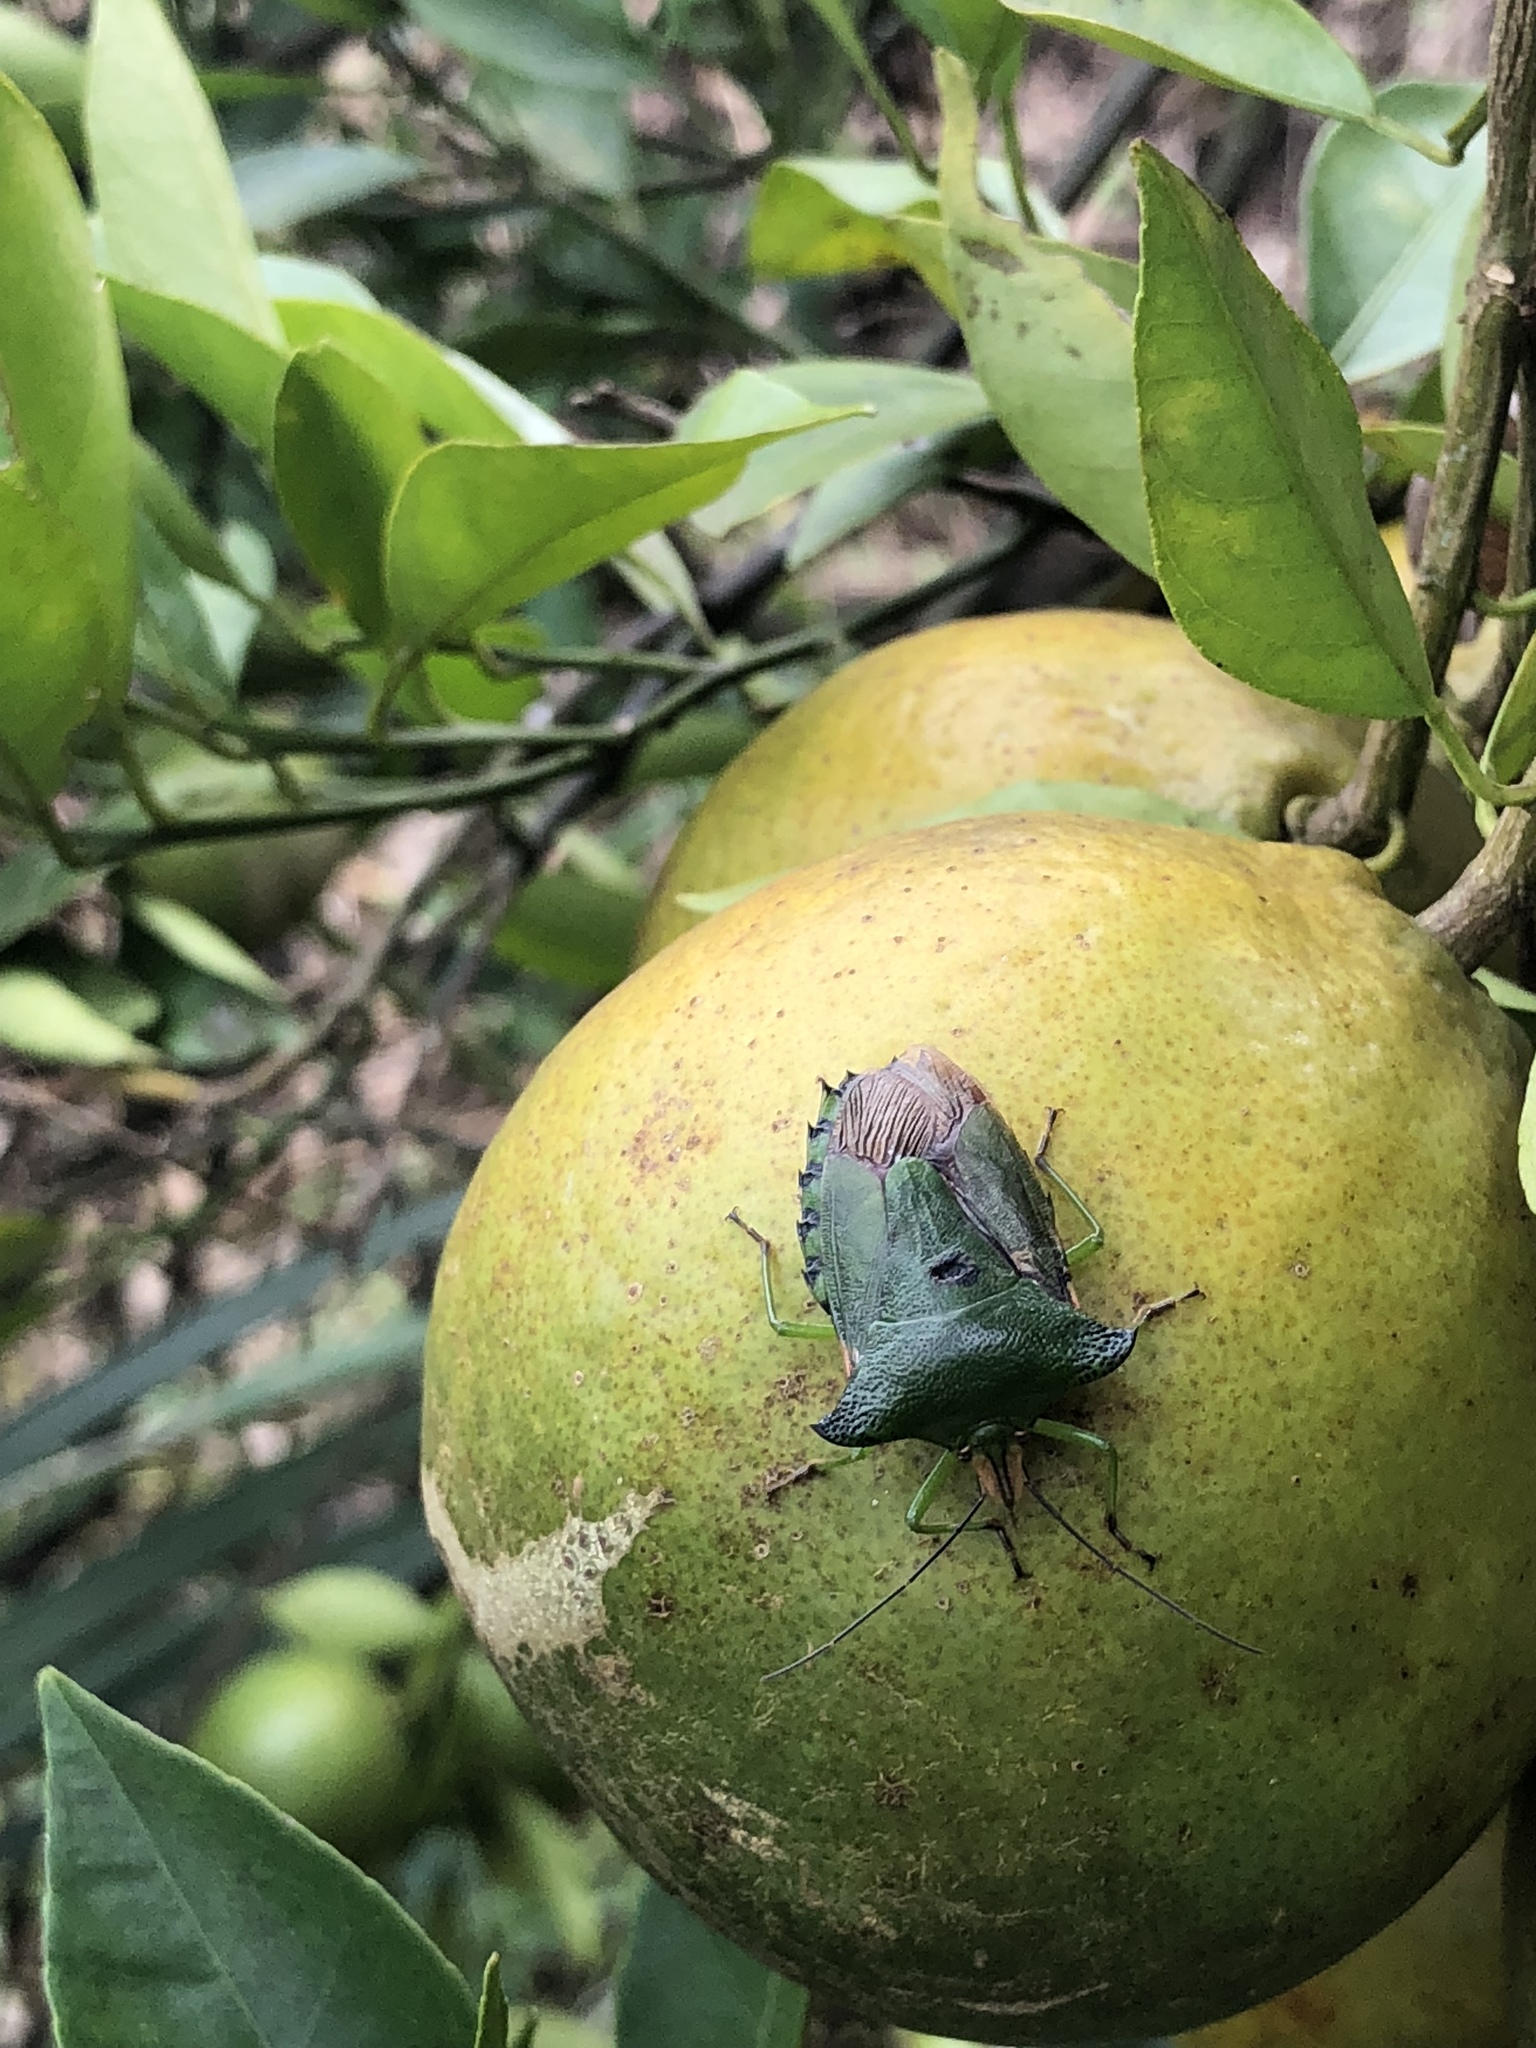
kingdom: Animalia
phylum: Arthropoda
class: Insecta
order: Hemiptera
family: Pentatomidae
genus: Rhynchocoris
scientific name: Rhynchocoris humeralis
